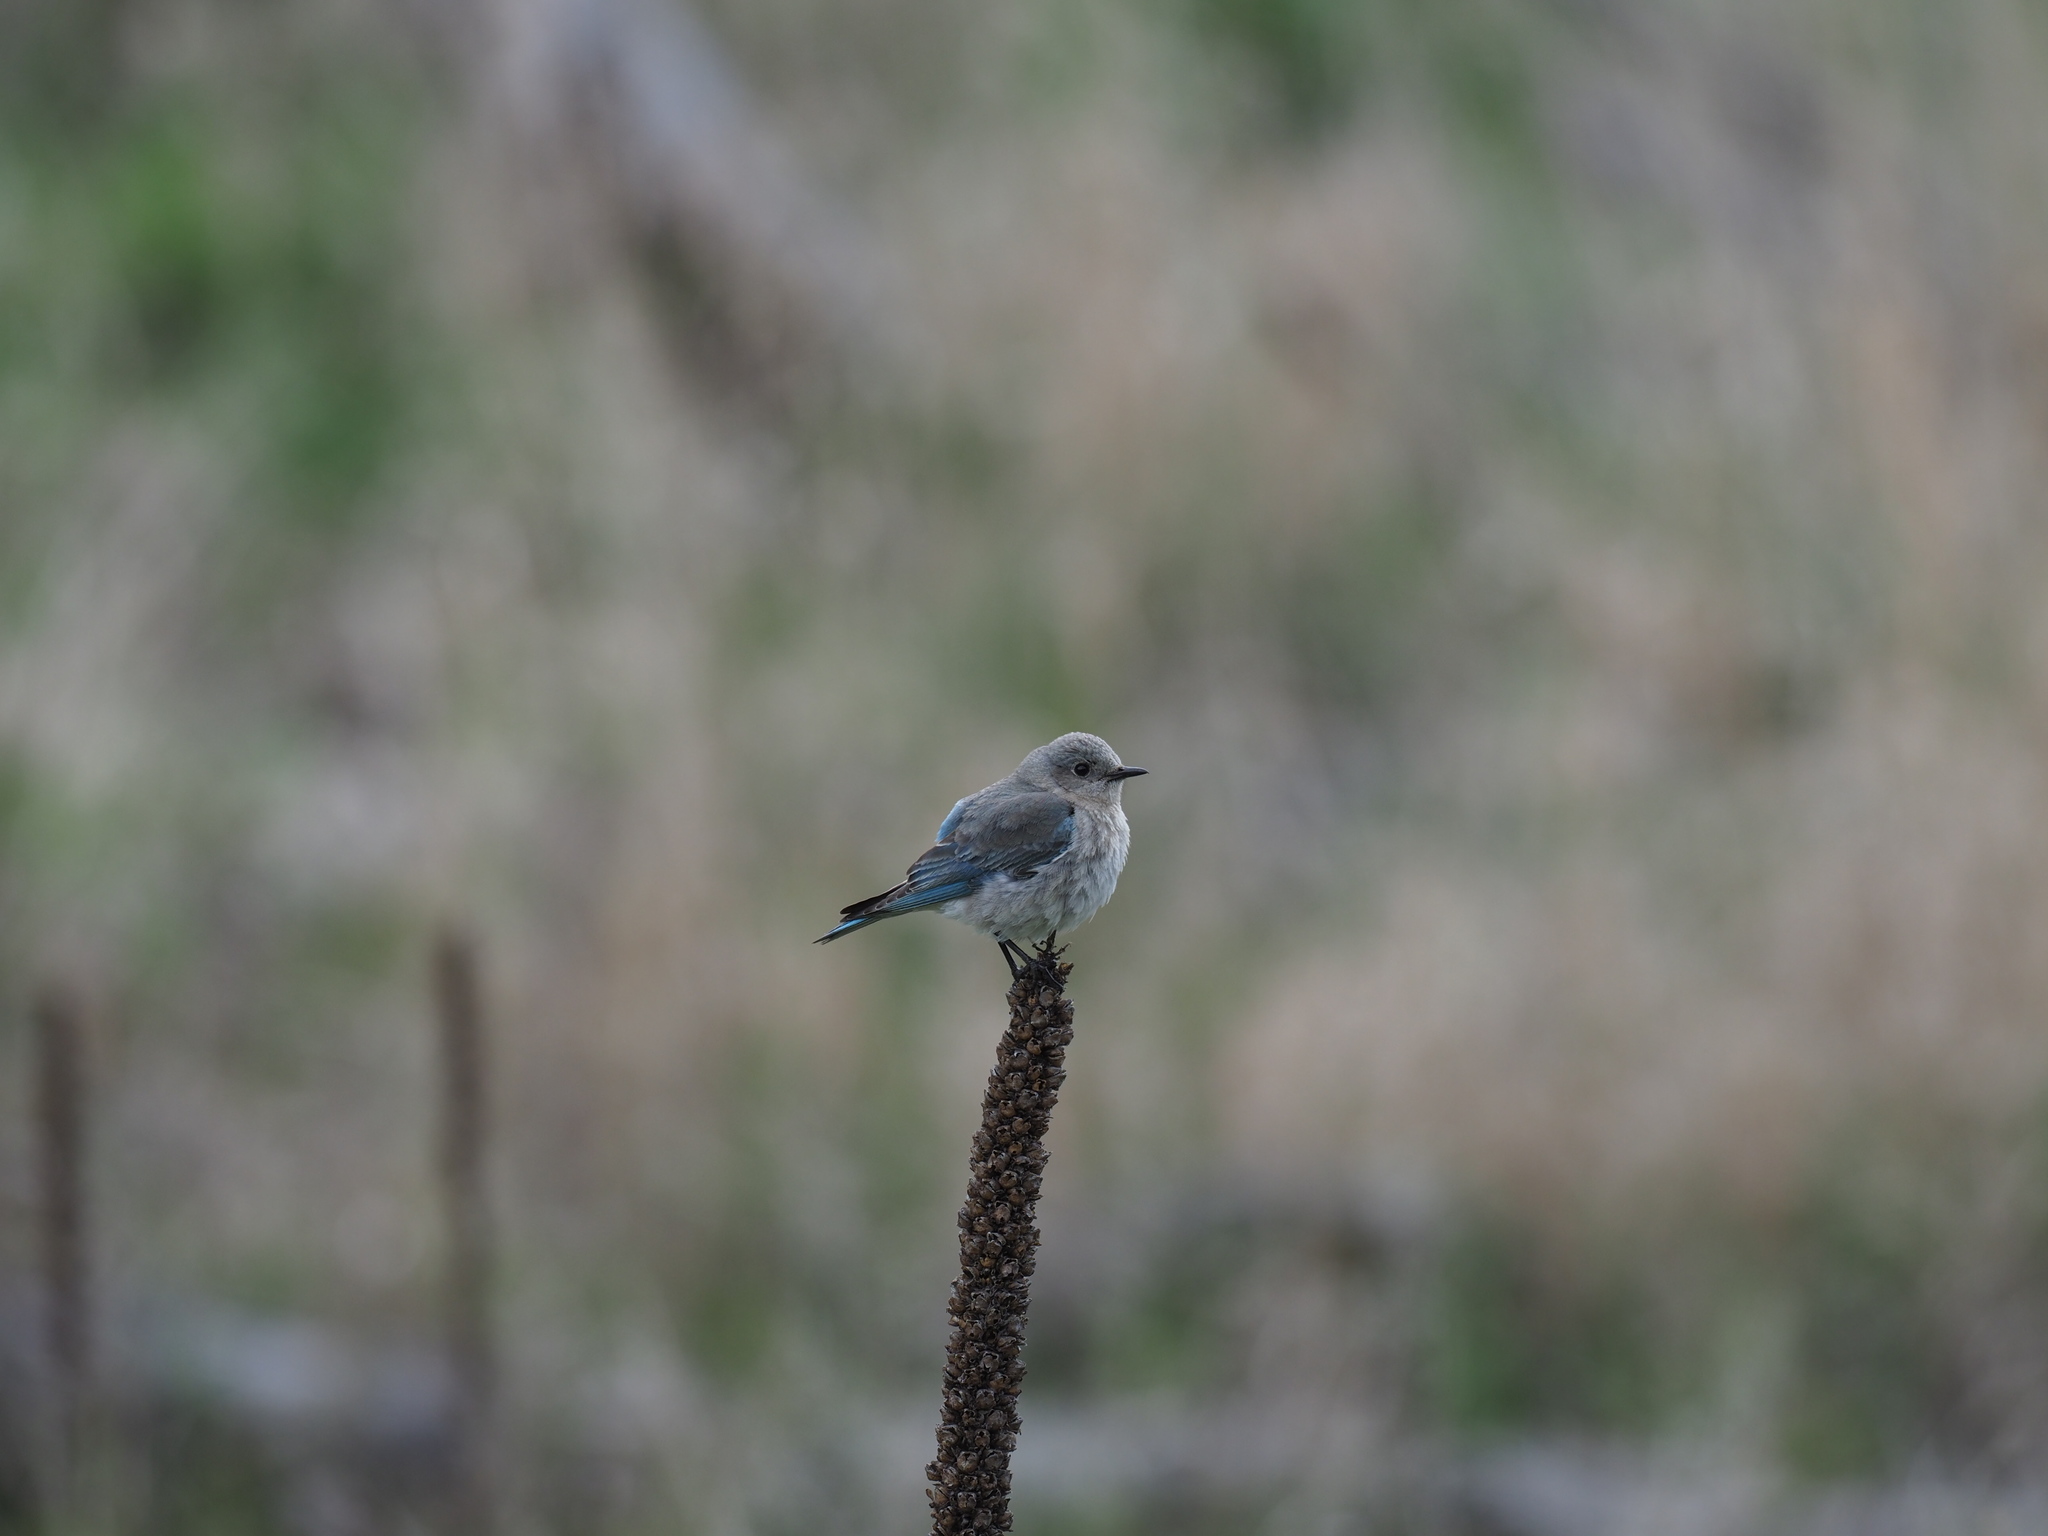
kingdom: Animalia
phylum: Chordata
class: Aves
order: Passeriformes
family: Turdidae
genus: Sialia
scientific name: Sialia currucoides
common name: Mountain bluebird
